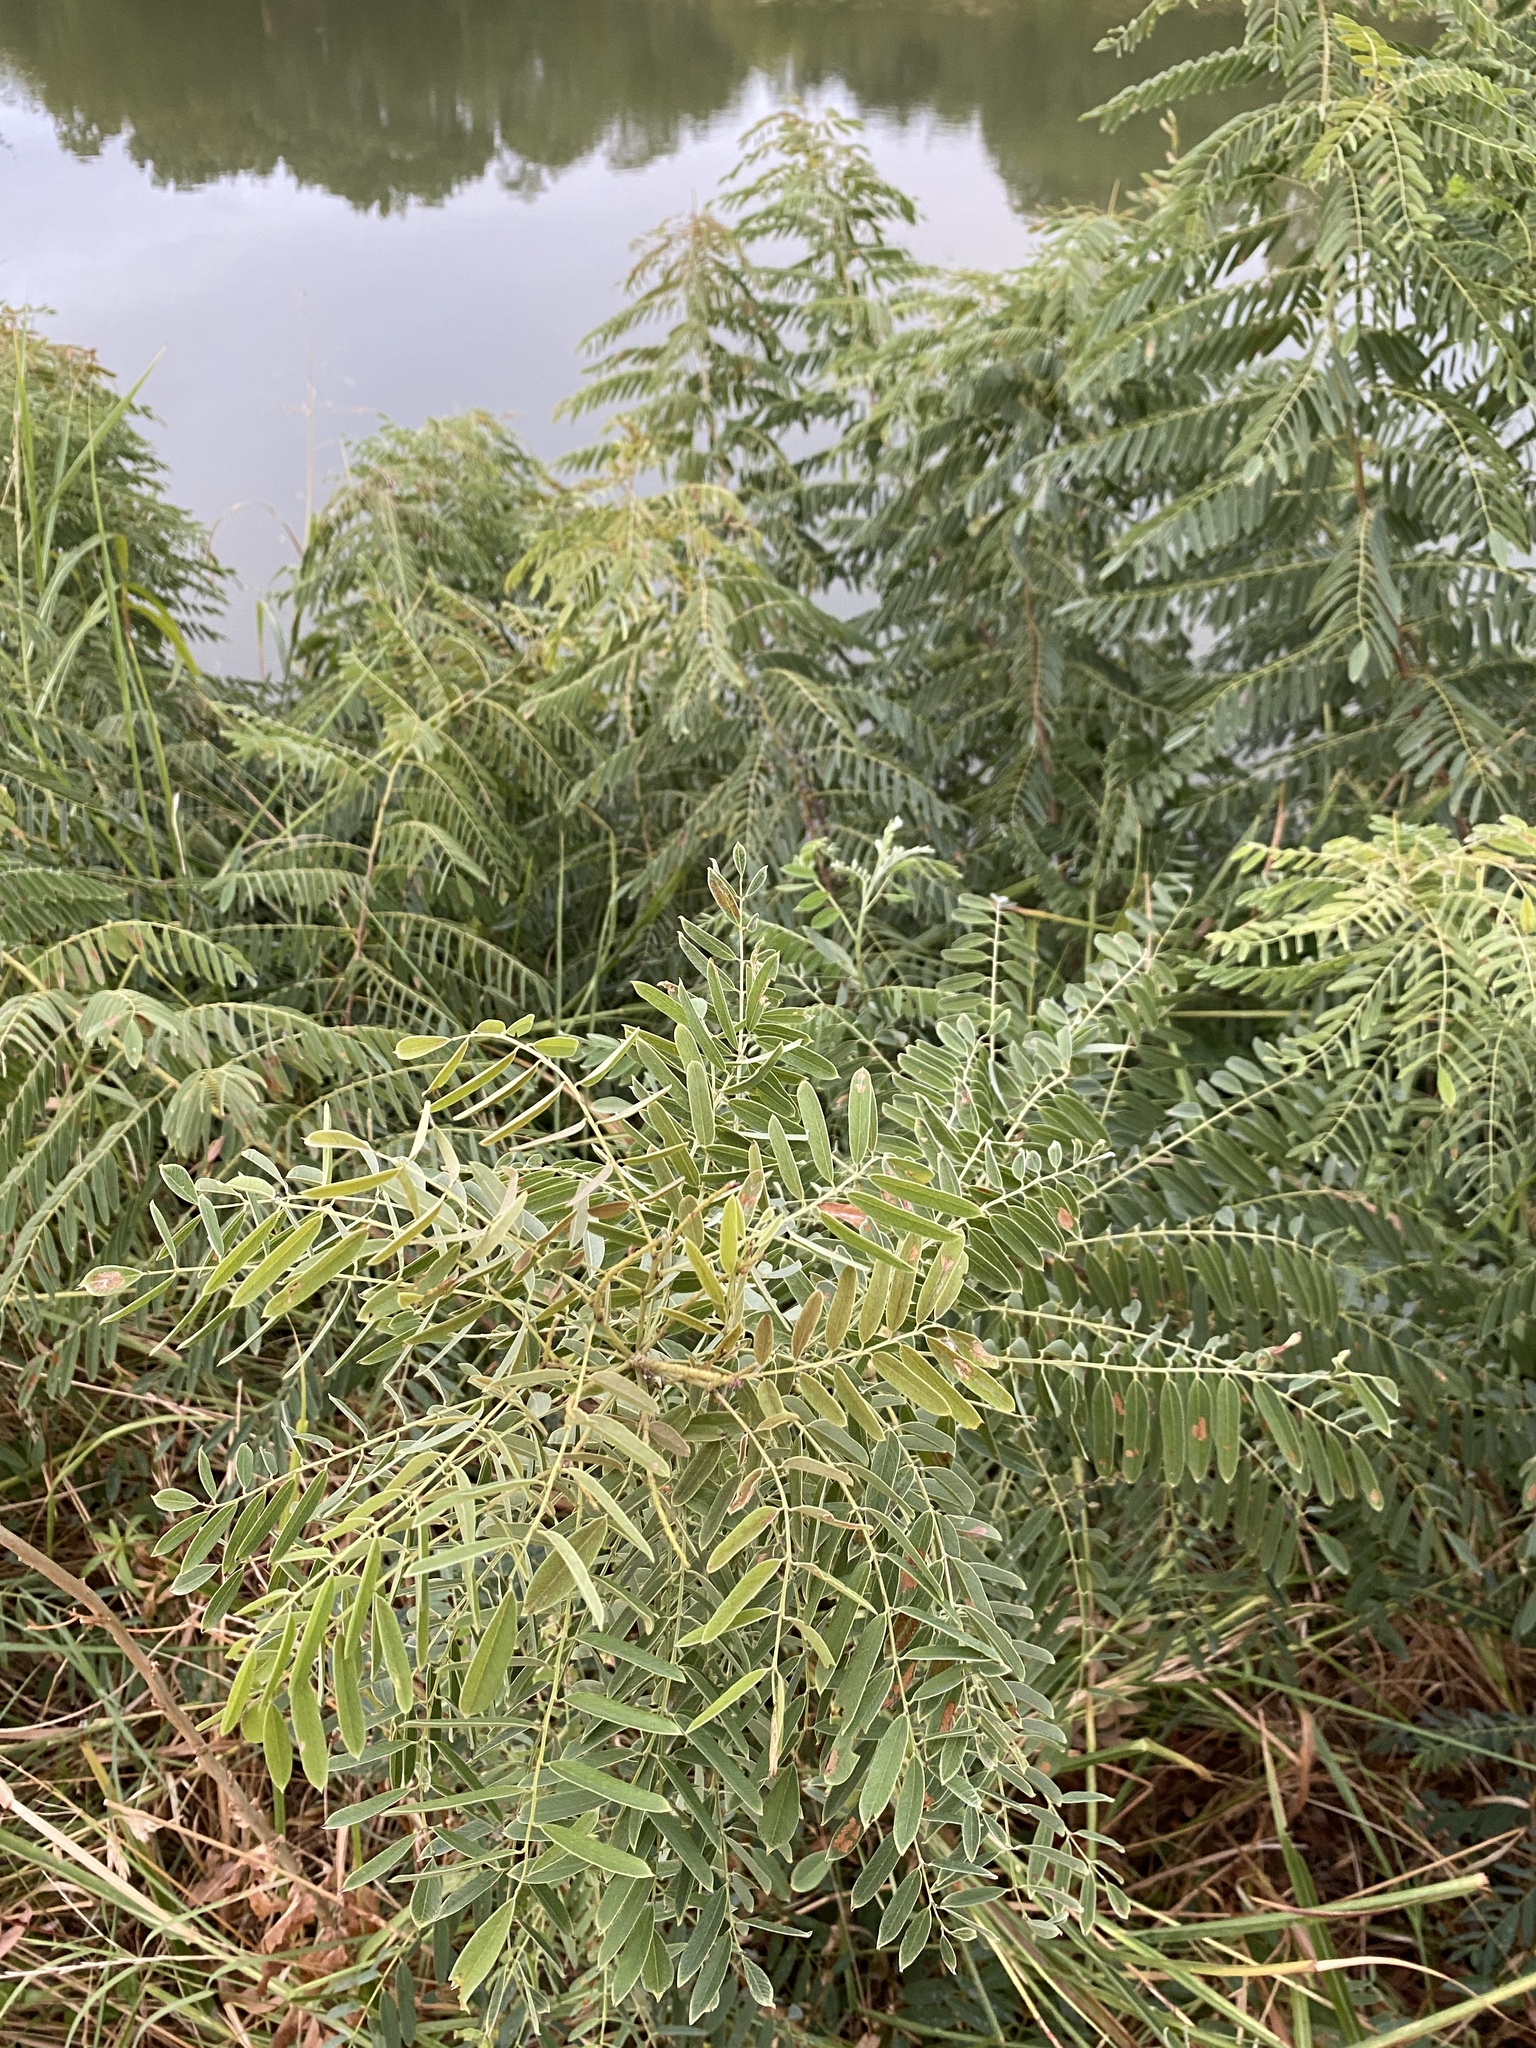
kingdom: Plantae
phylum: Tracheophyta
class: Magnoliopsida
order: Fabales
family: Fabaceae
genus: Amorpha
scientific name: Amorpha fruticosa
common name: False indigo
